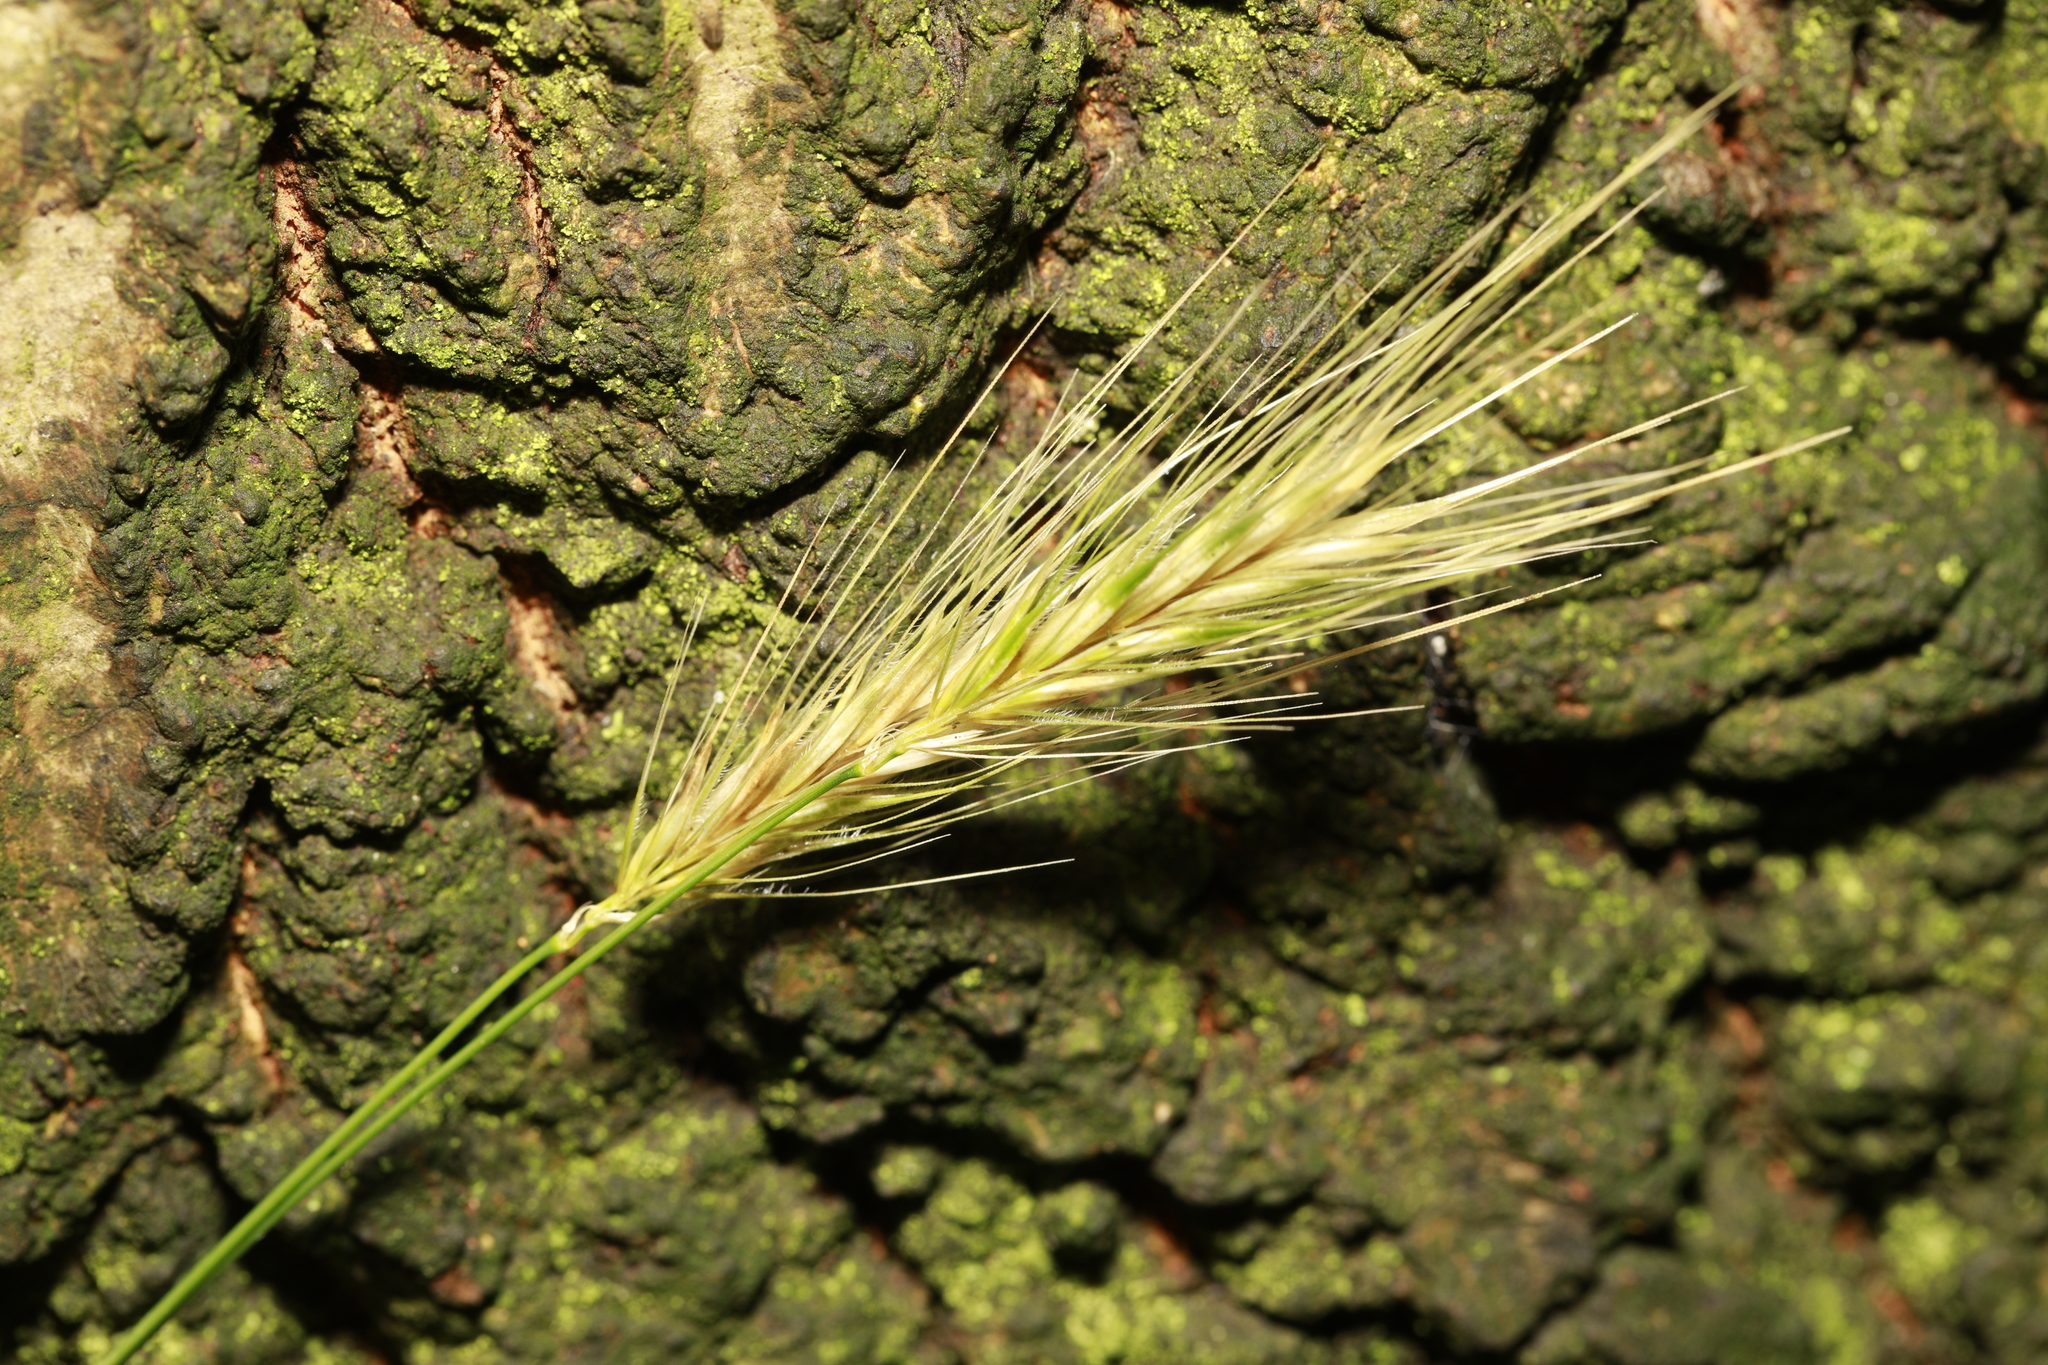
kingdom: Plantae
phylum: Tracheophyta
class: Liliopsida
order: Poales
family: Poaceae
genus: Hordeum
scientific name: Hordeum murinum
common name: Wall barley
